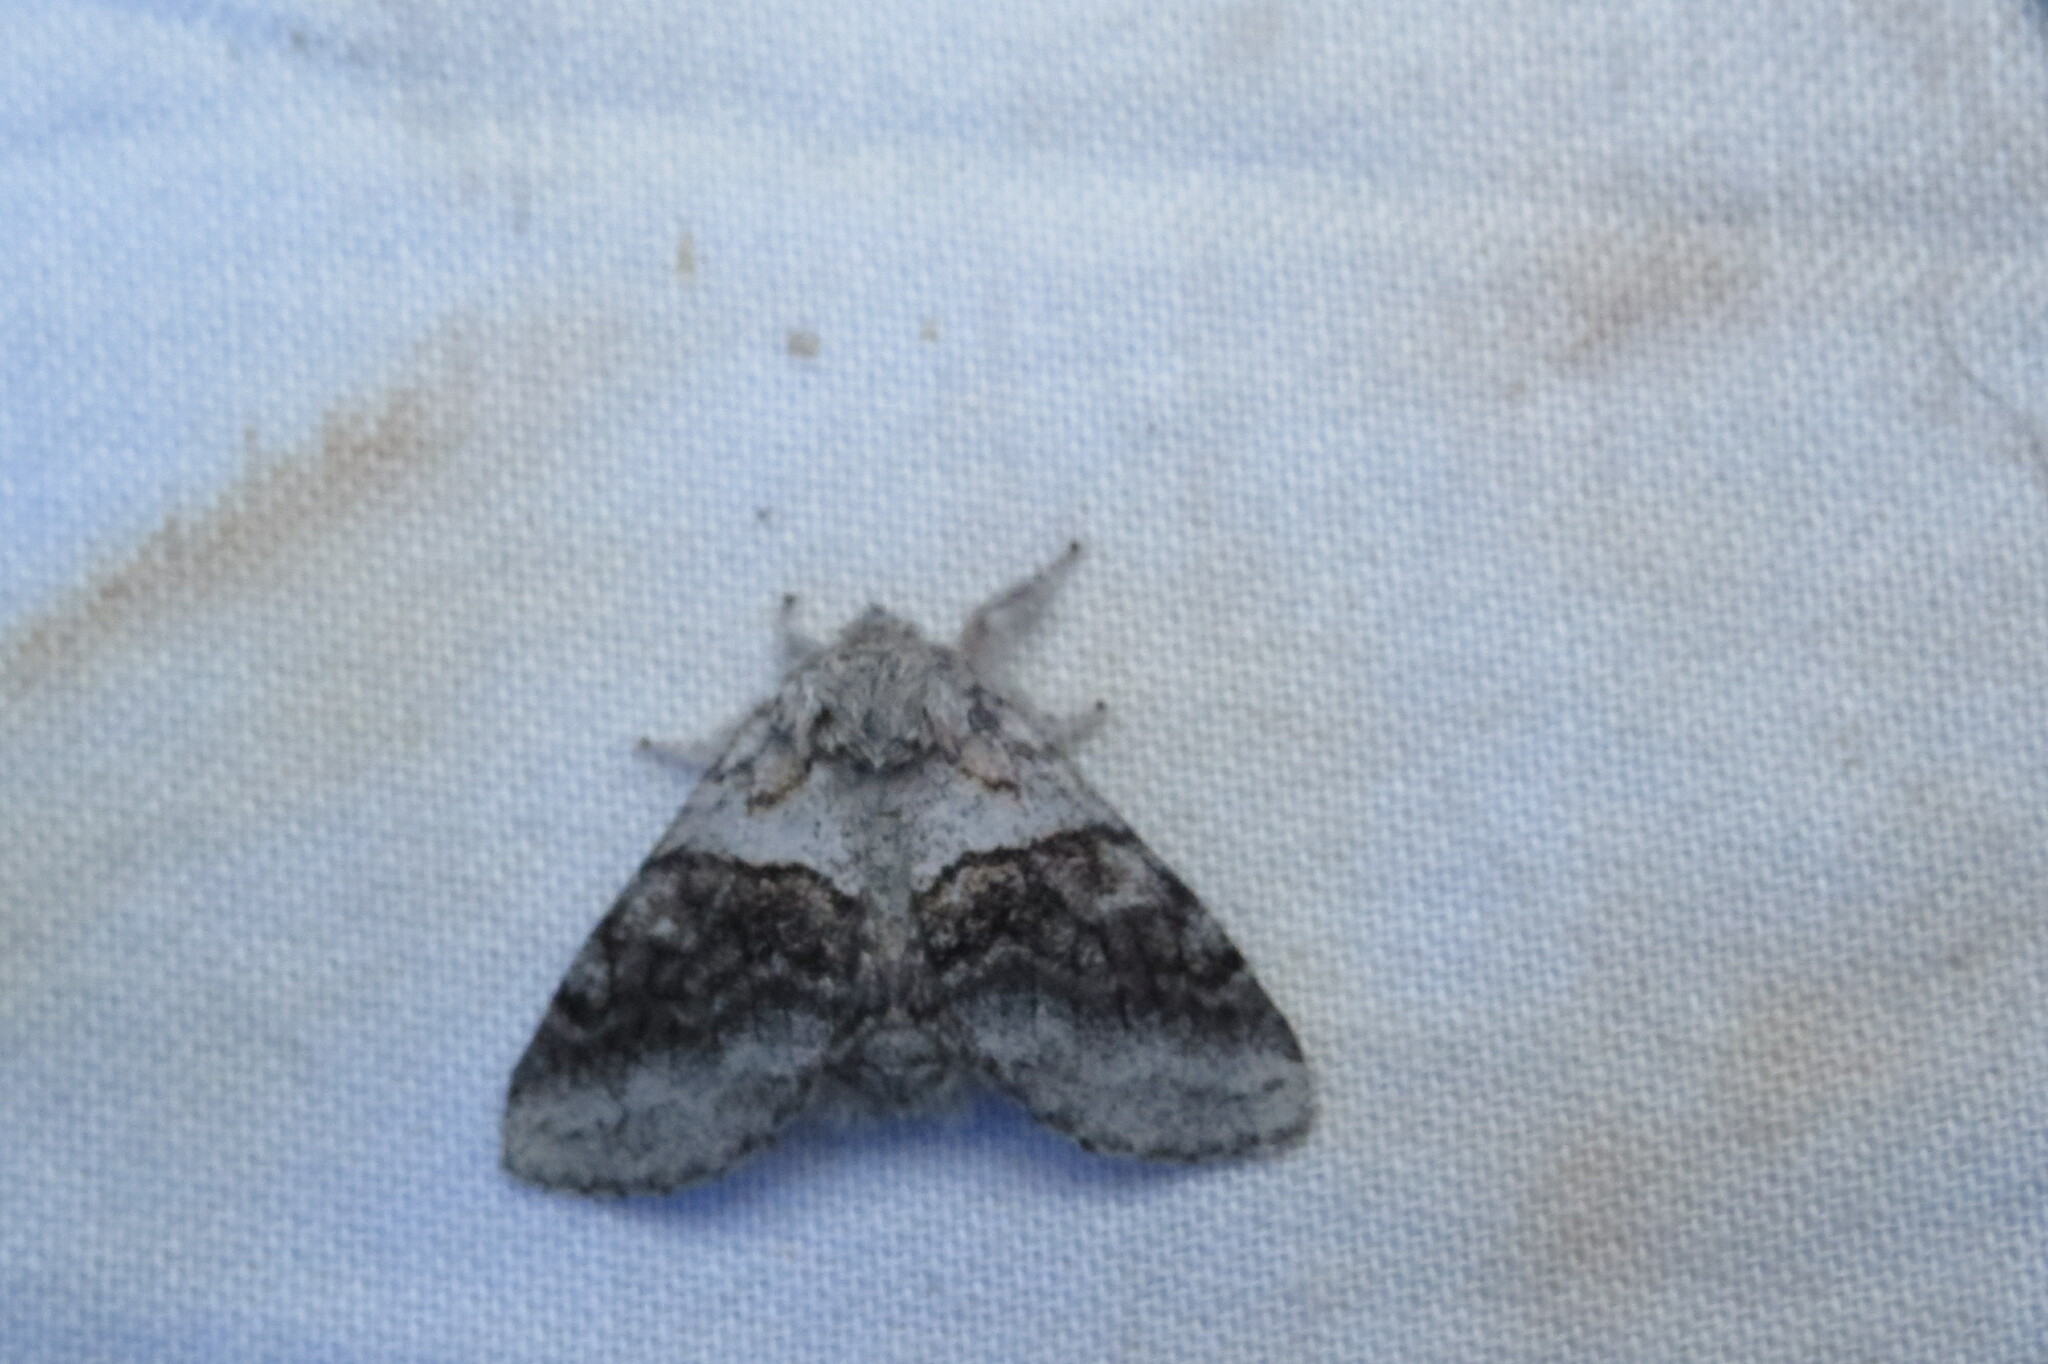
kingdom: Animalia
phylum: Arthropoda
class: Insecta
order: Lepidoptera
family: Notodontidae
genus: Gluphisia
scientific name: Gluphisia septentrionis
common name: Common gluphisia
